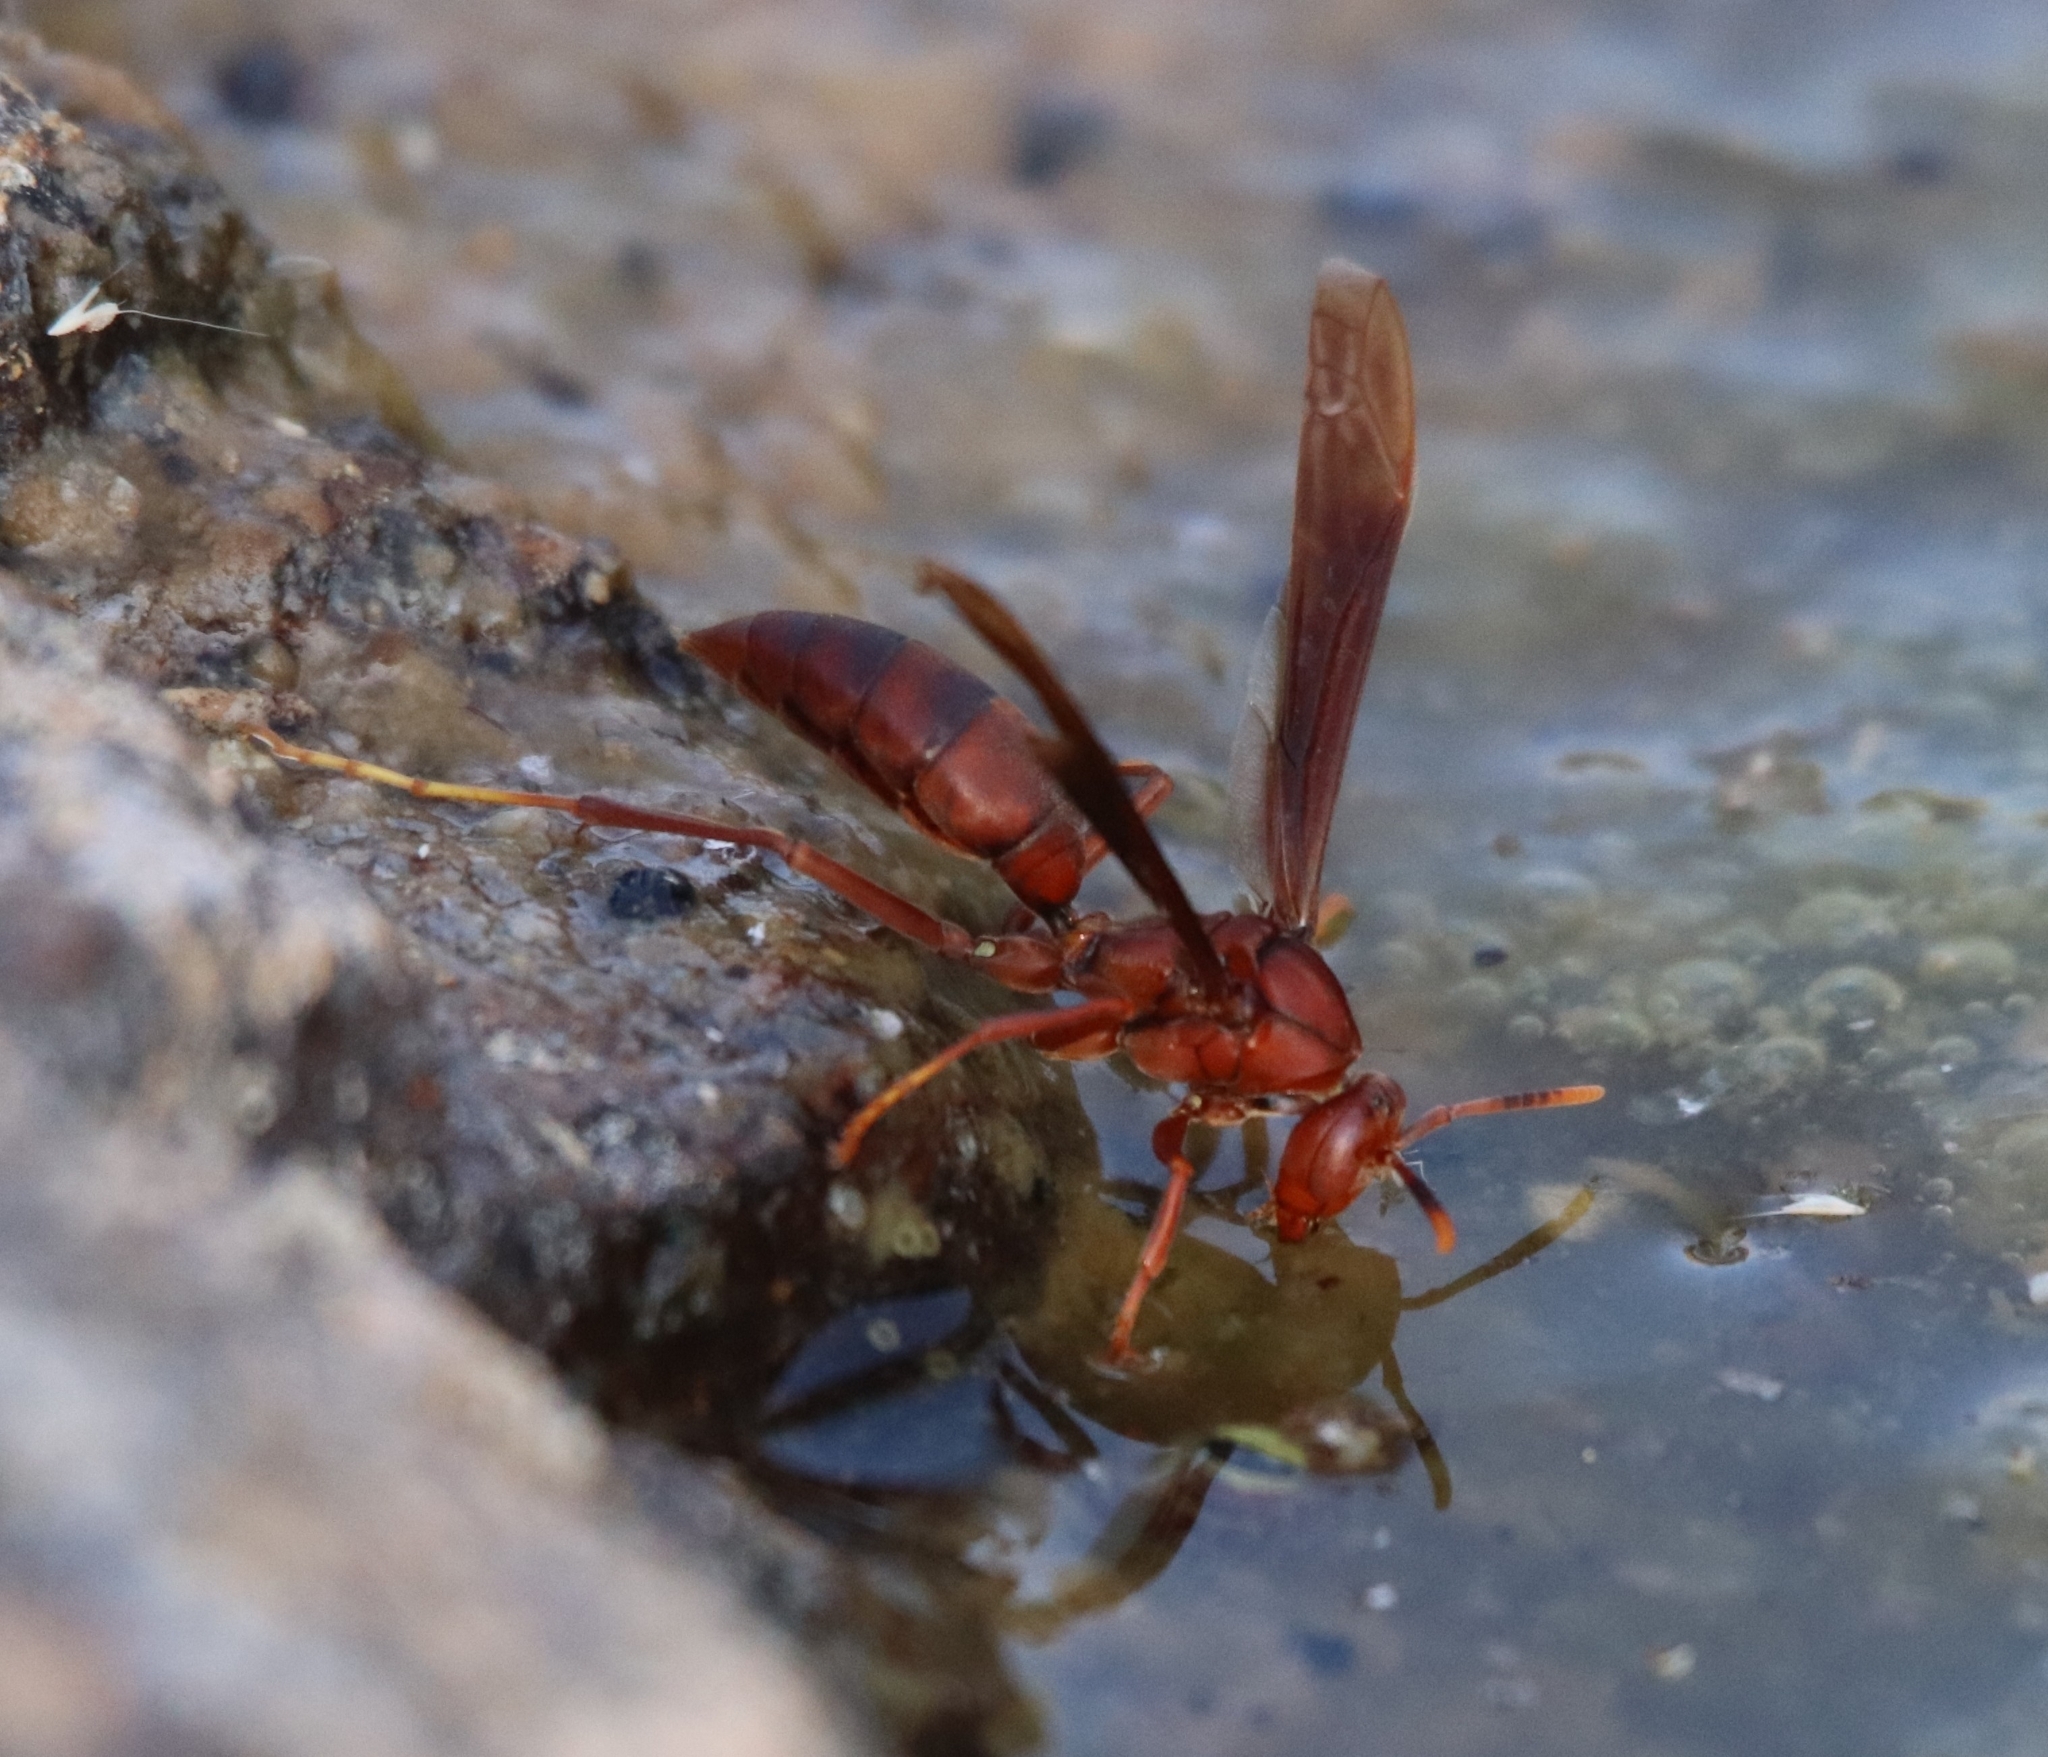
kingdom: Animalia
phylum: Arthropoda
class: Insecta
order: Hymenoptera
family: Eumenidae
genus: Polistes
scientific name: Polistes canadensis
